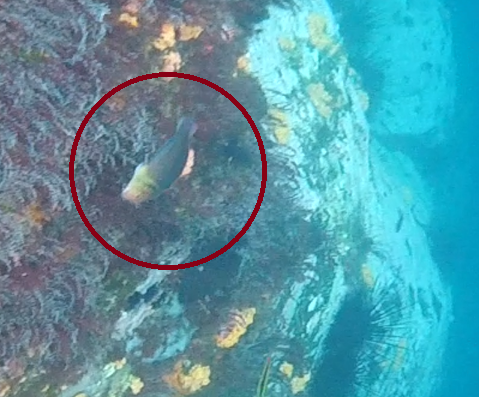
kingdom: Animalia
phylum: Chordata
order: Perciformes
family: Blenniidae
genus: Ophioblennius
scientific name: Ophioblennius steindachneri
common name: Panamic fanged blenny
